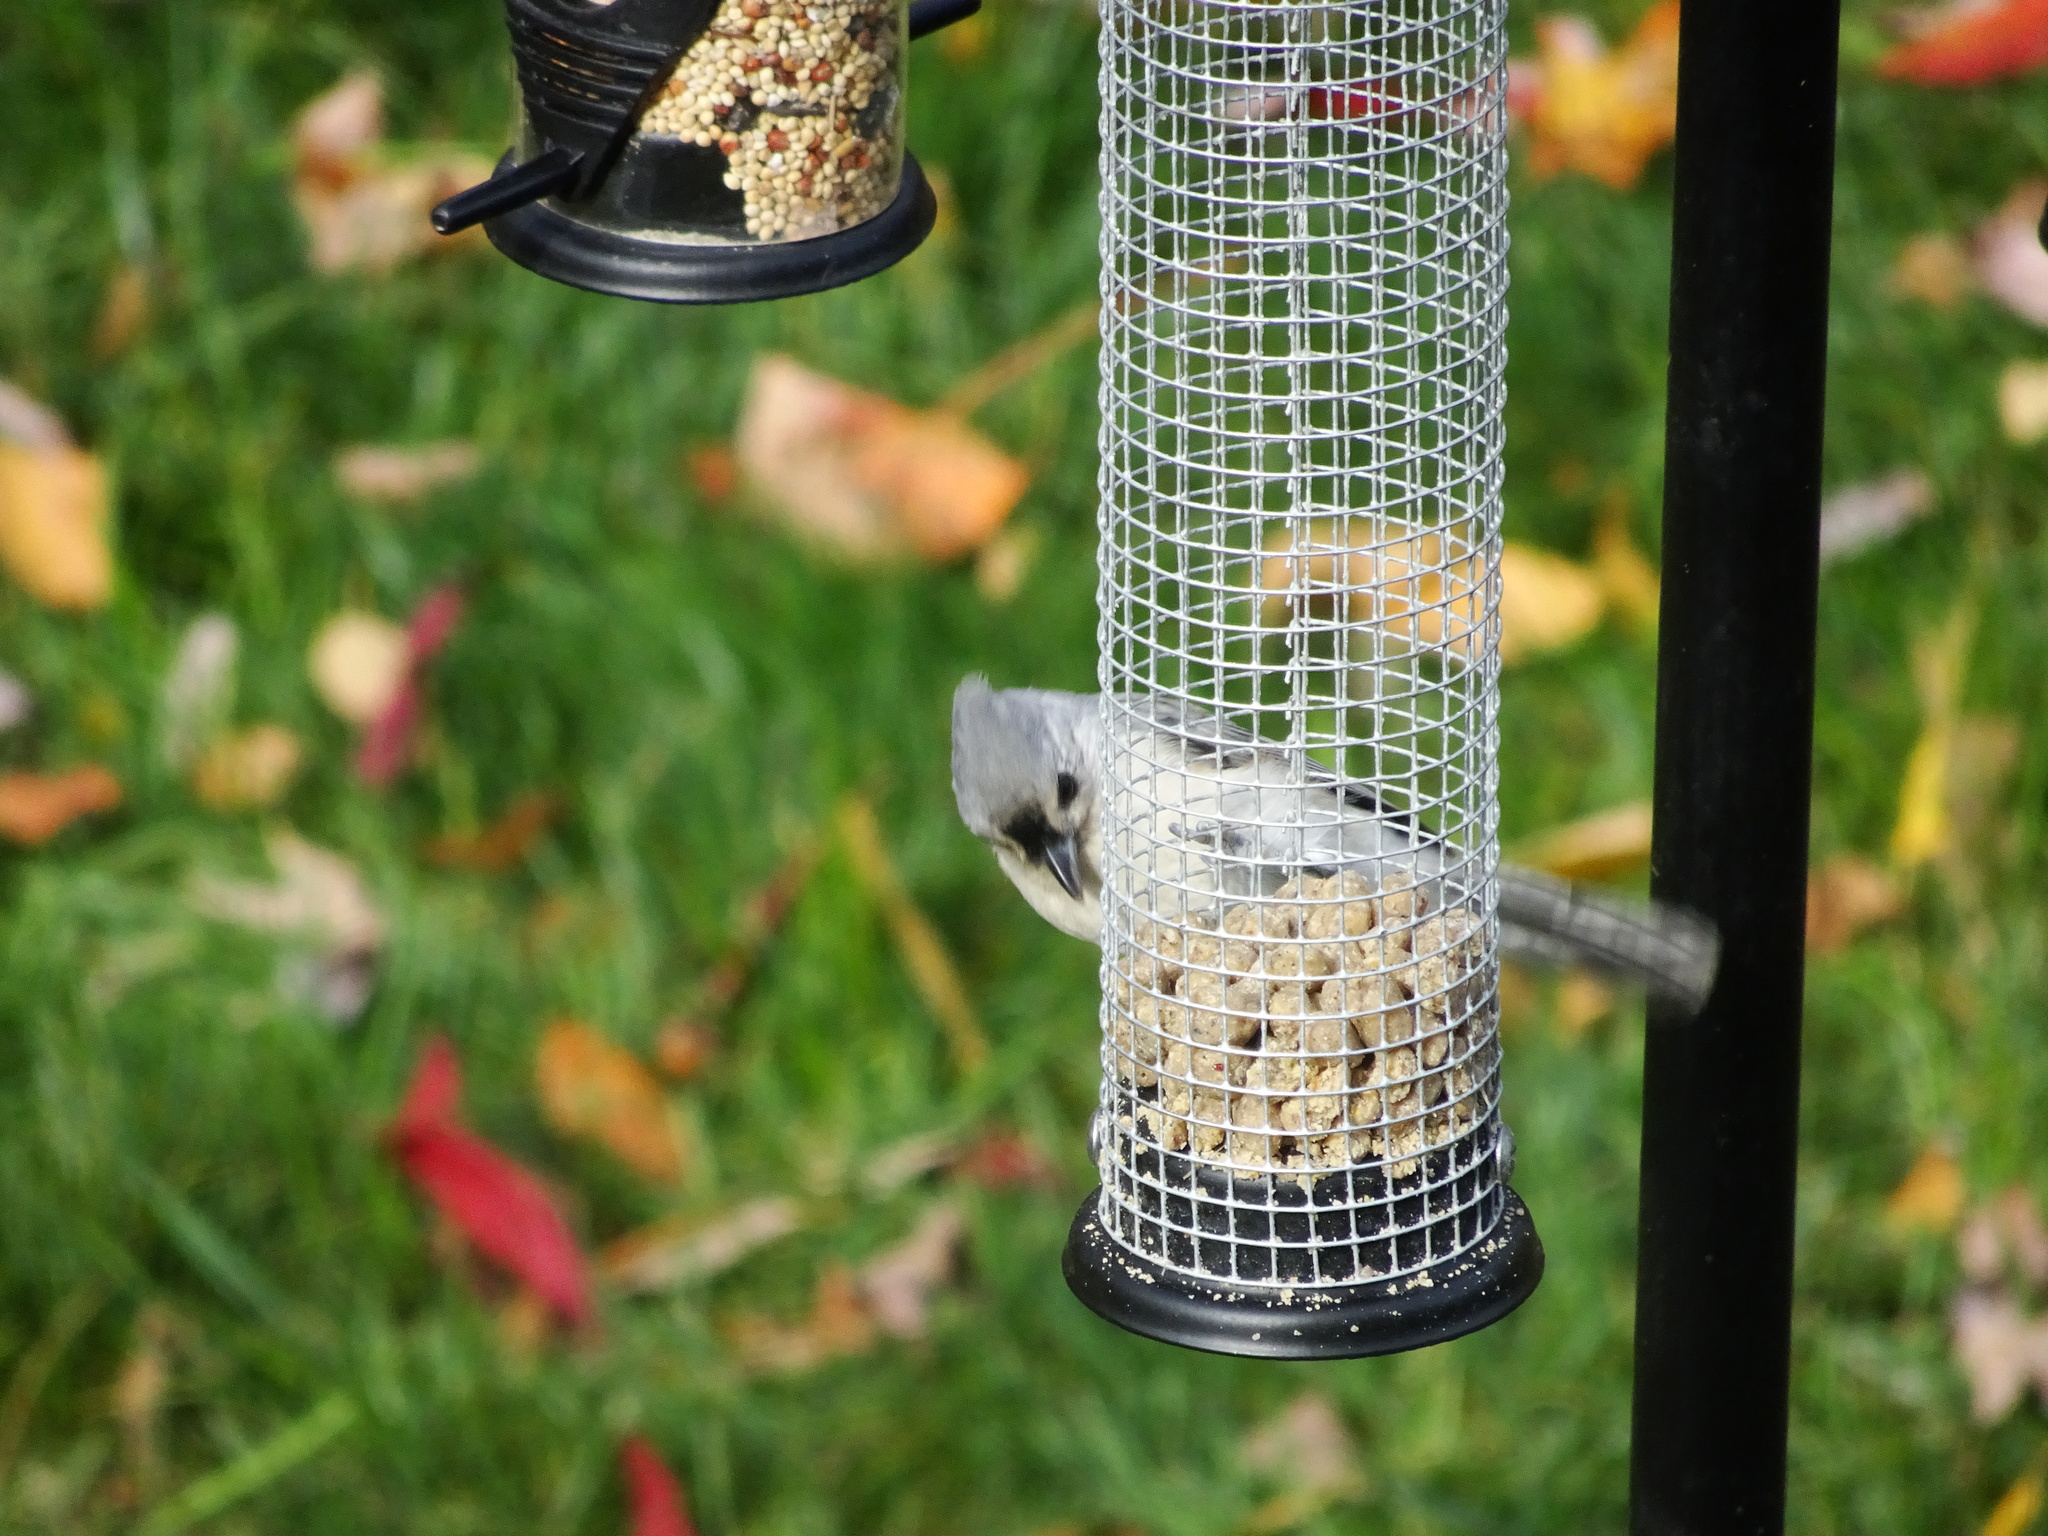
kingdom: Animalia
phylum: Chordata
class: Aves
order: Passeriformes
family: Paridae
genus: Baeolophus
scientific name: Baeolophus bicolor
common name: Tufted titmouse
